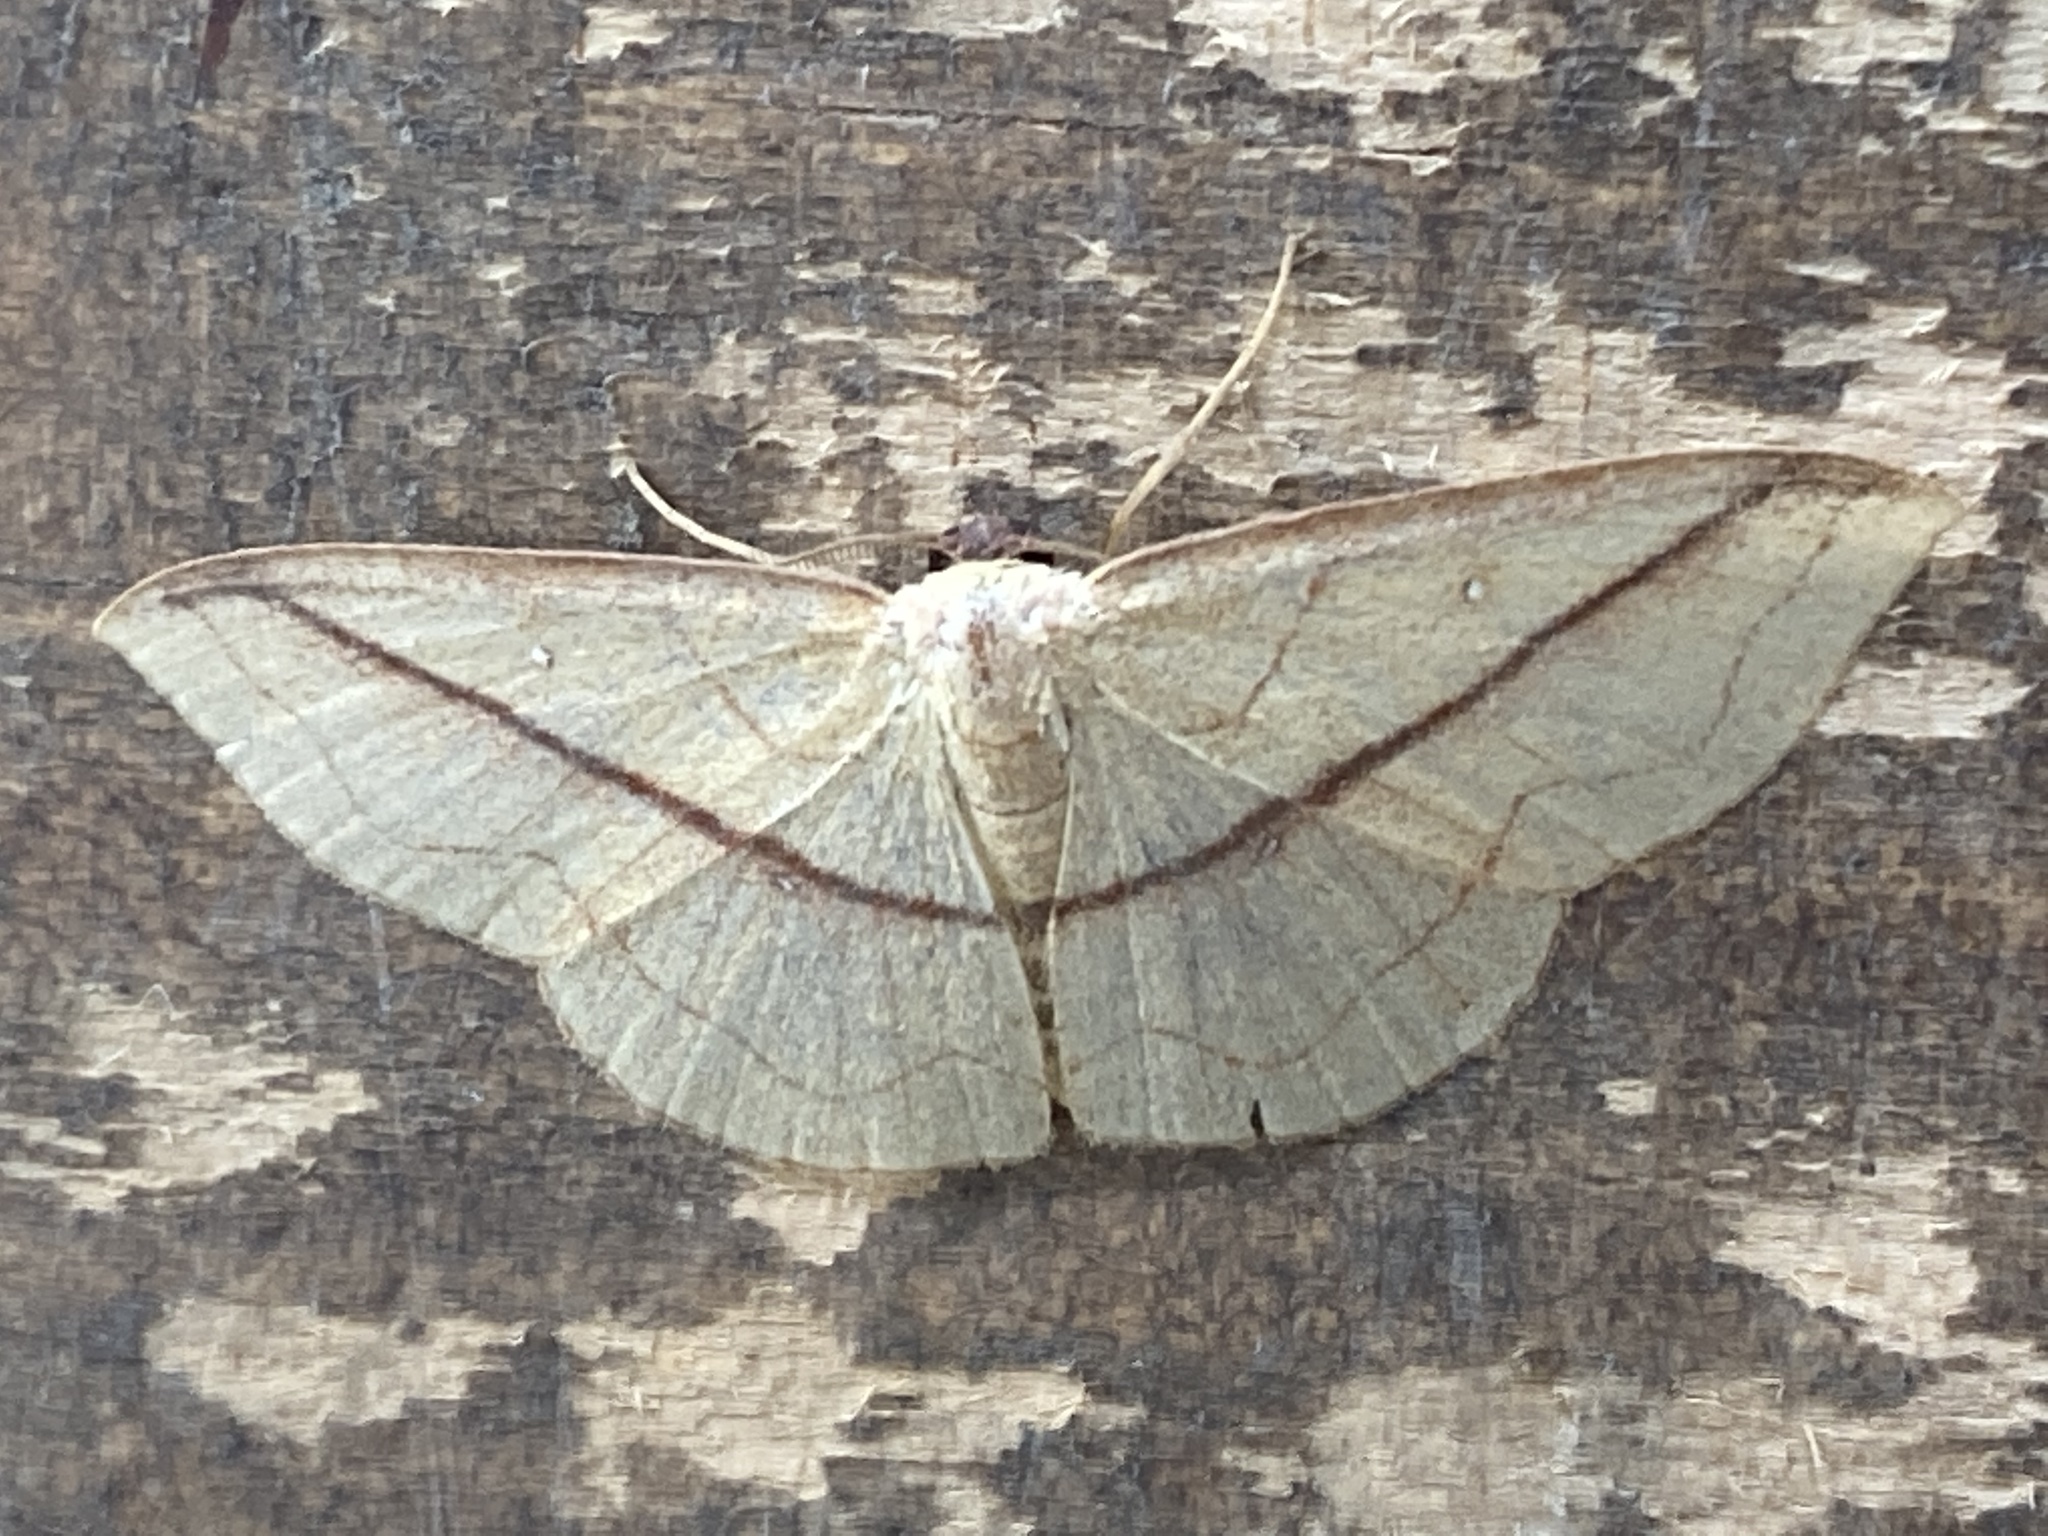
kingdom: Animalia
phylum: Arthropoda
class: Insecta
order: Lepidoptera
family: Geometridae
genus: Semaeopus
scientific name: Semaeopus ciliata
